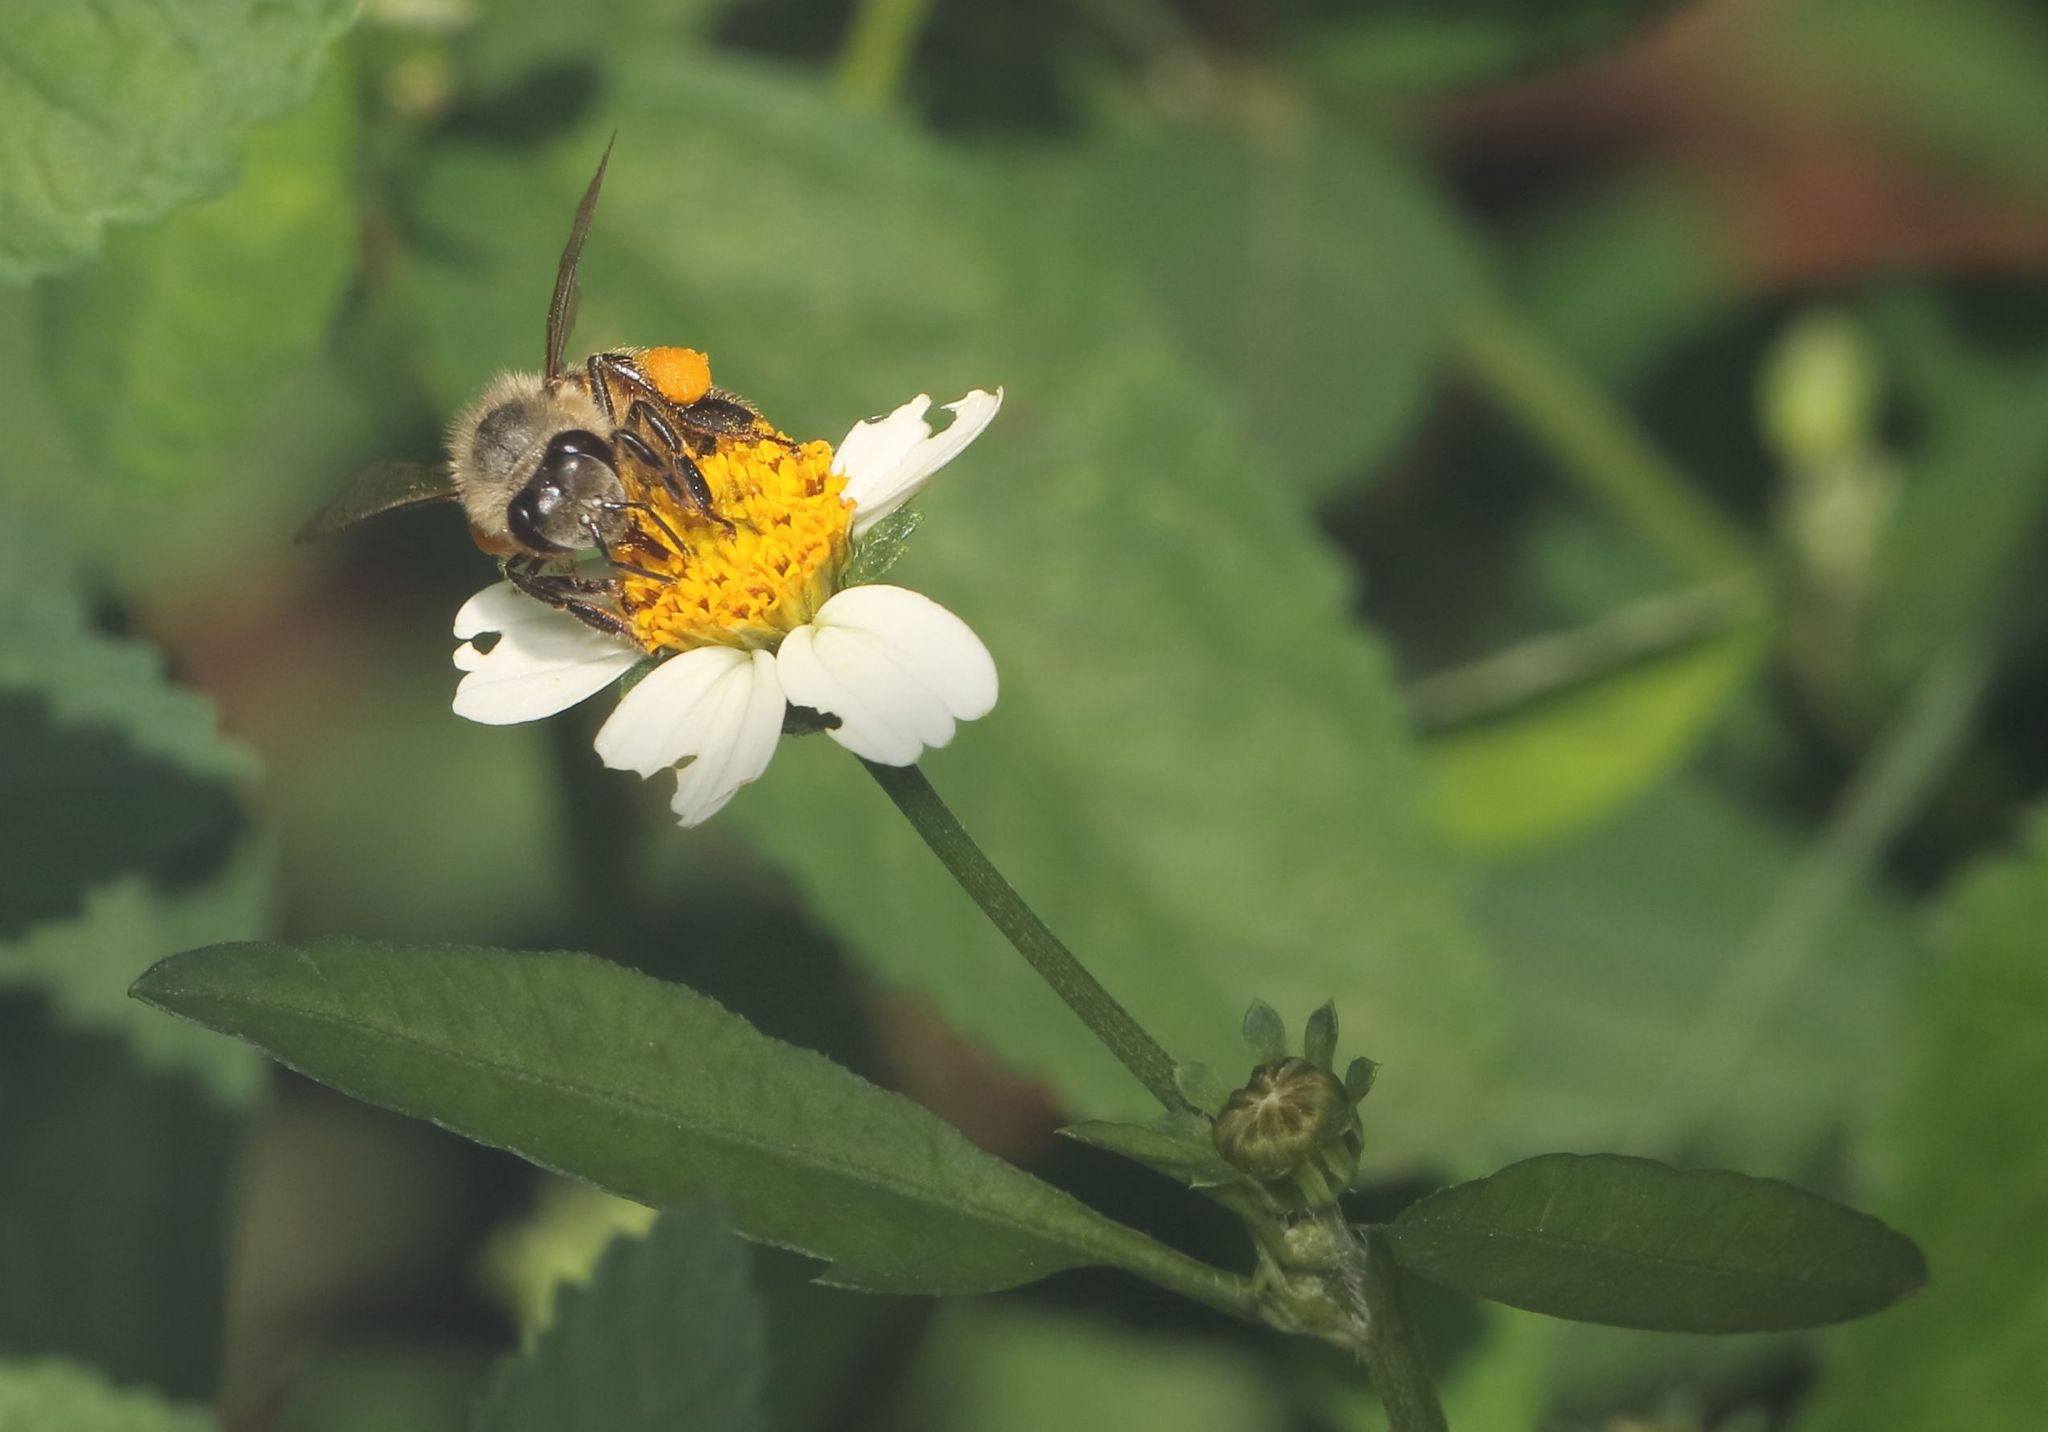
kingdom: Animalia
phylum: Arthropoda
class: Insecta
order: Hymenoptera
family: Apidae
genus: Apis
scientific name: Apis mellifera
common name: Honey bee
